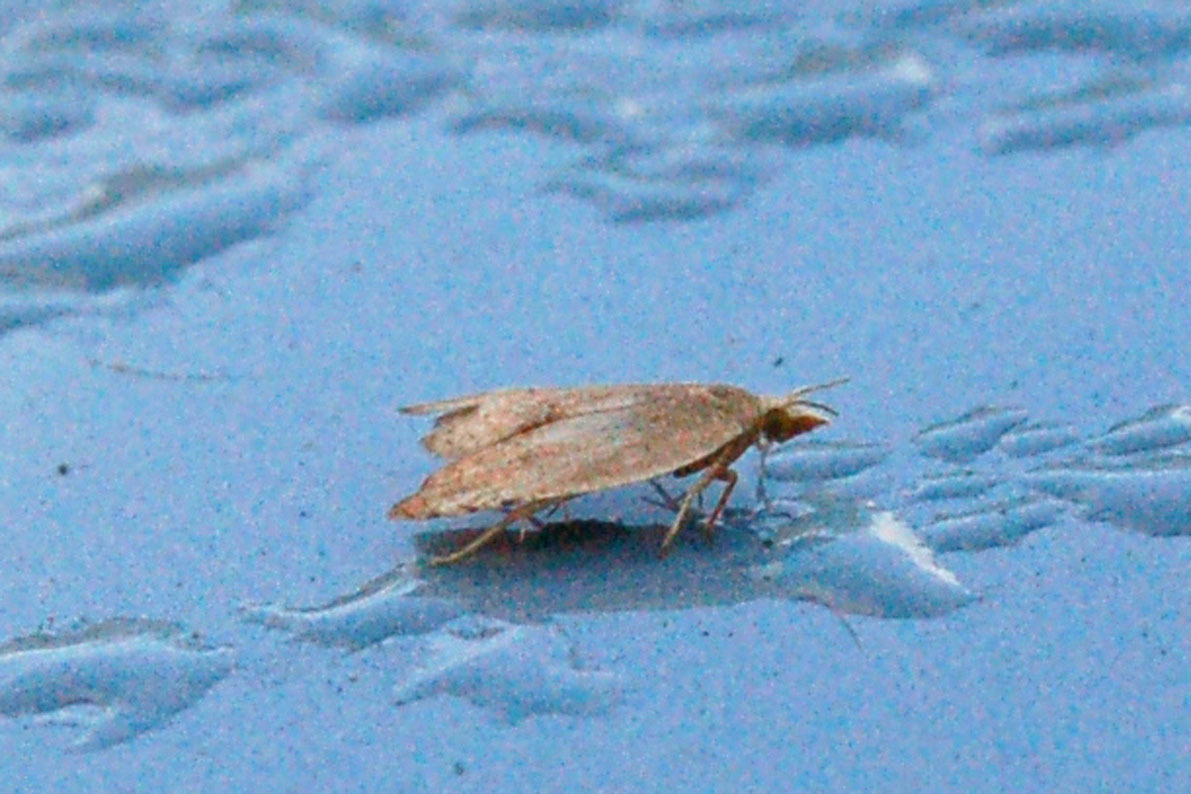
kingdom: Animalia
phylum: Arthropoda
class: Insecta
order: Lepidoptera
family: Tortricidae
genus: Coelostathma
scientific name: Coelostathma discopunctana
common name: Batman moth
